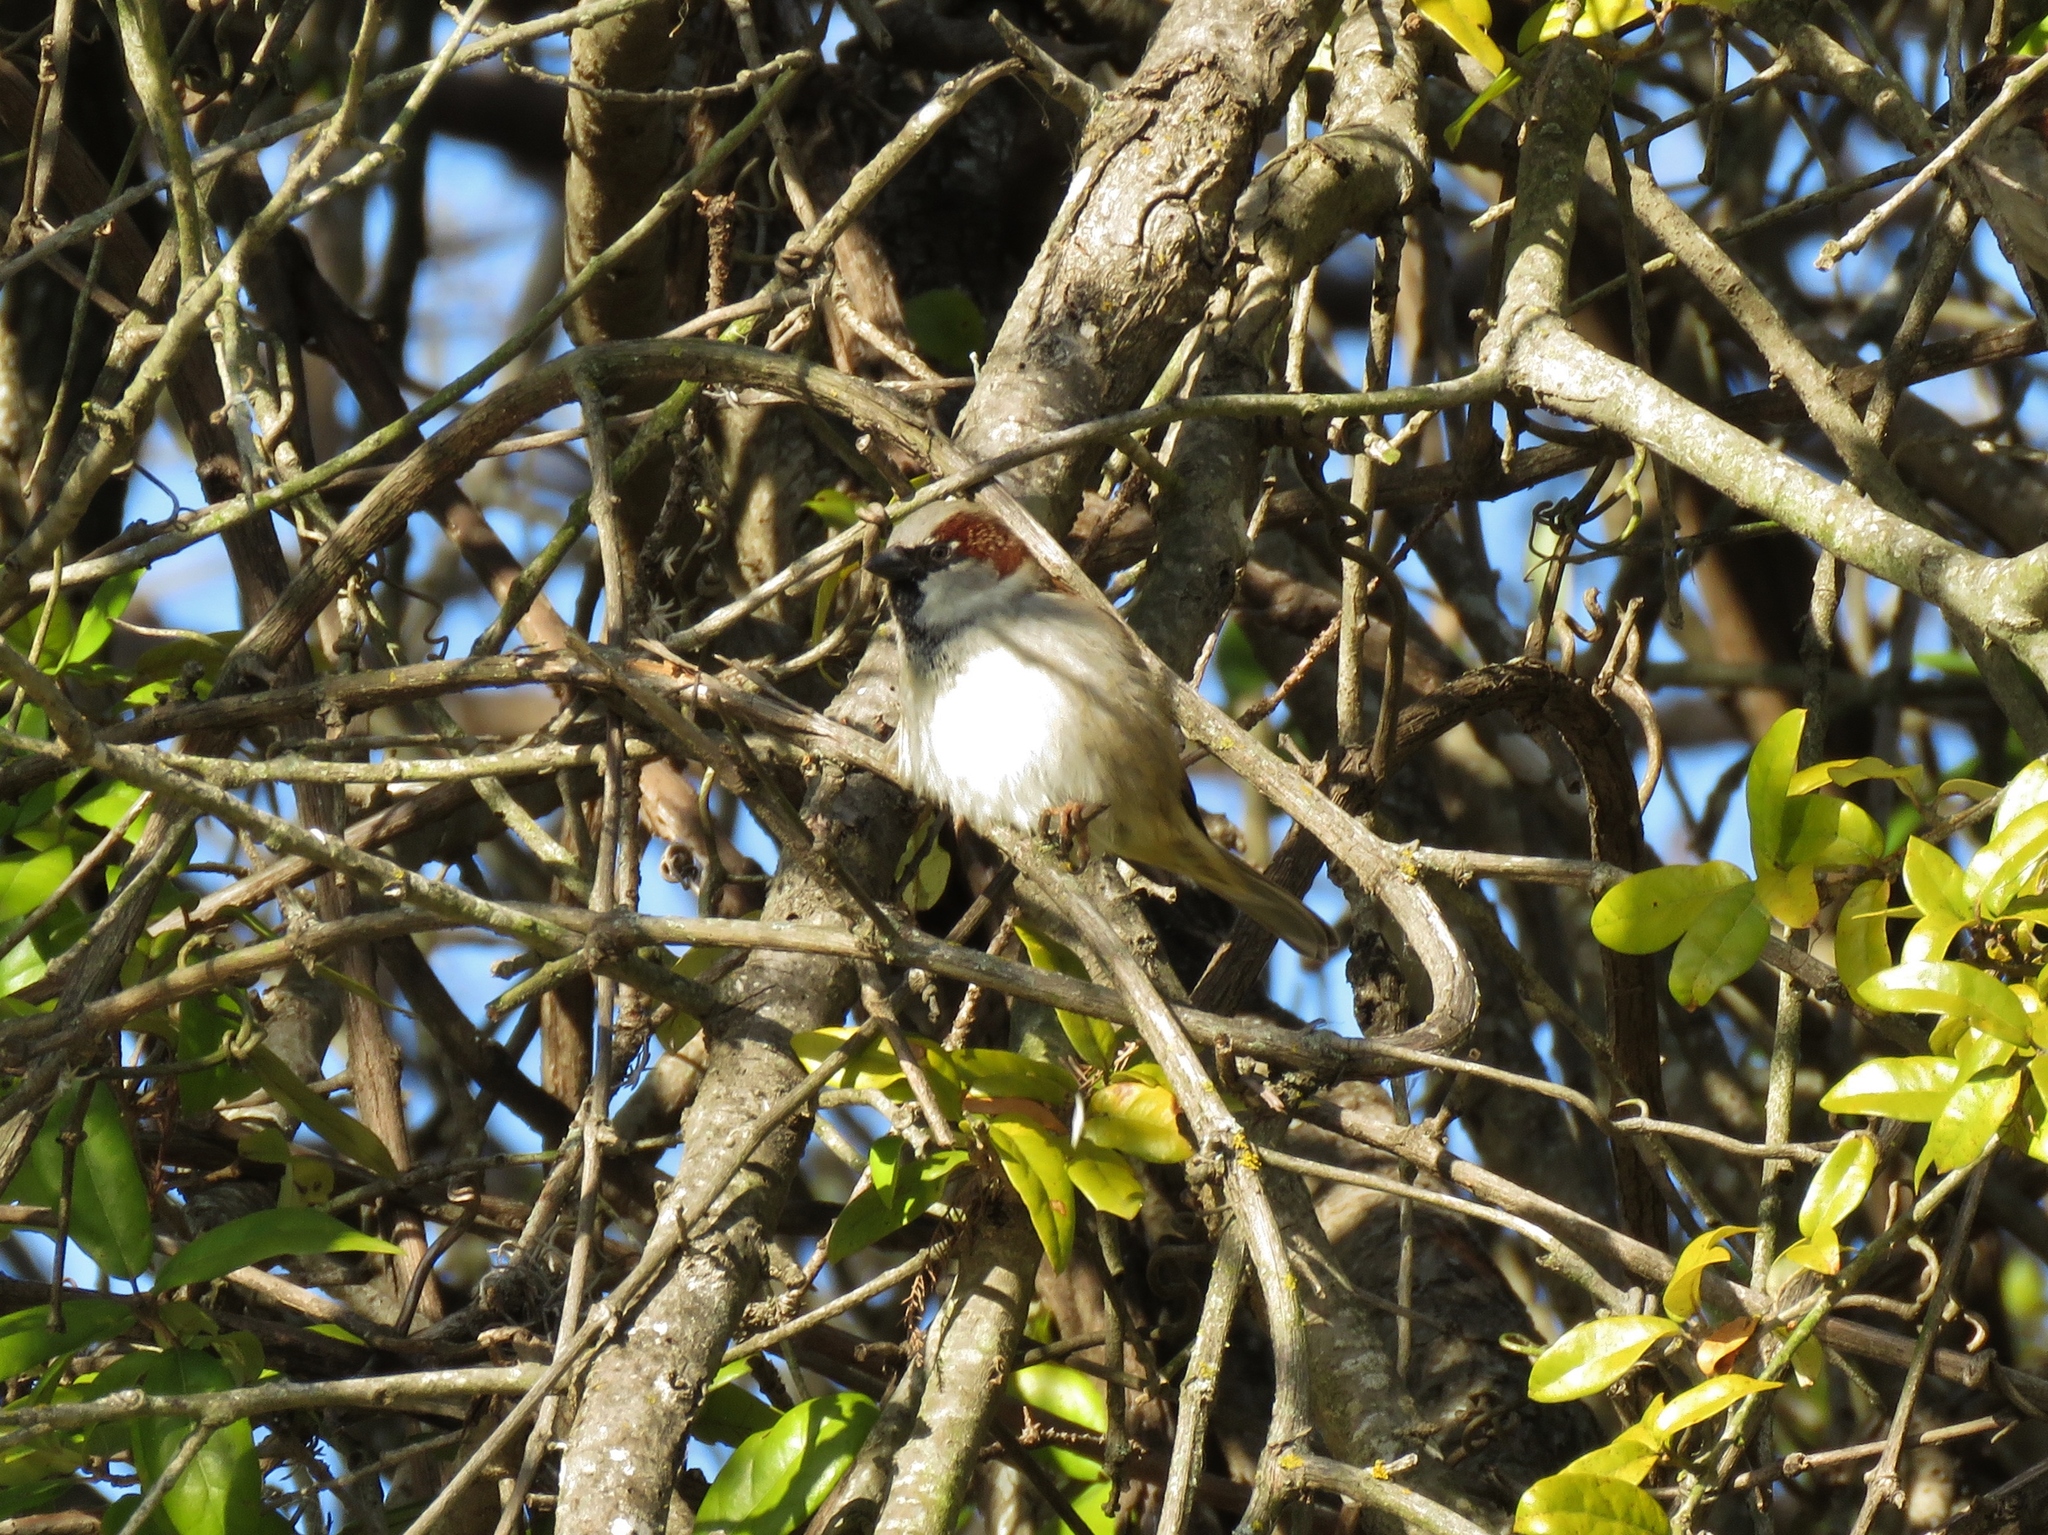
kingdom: Animalia
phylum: Chordata
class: Aves
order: Passeriformes
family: Passeridae
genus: Passer
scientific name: Passer domesticus
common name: House sparrow
